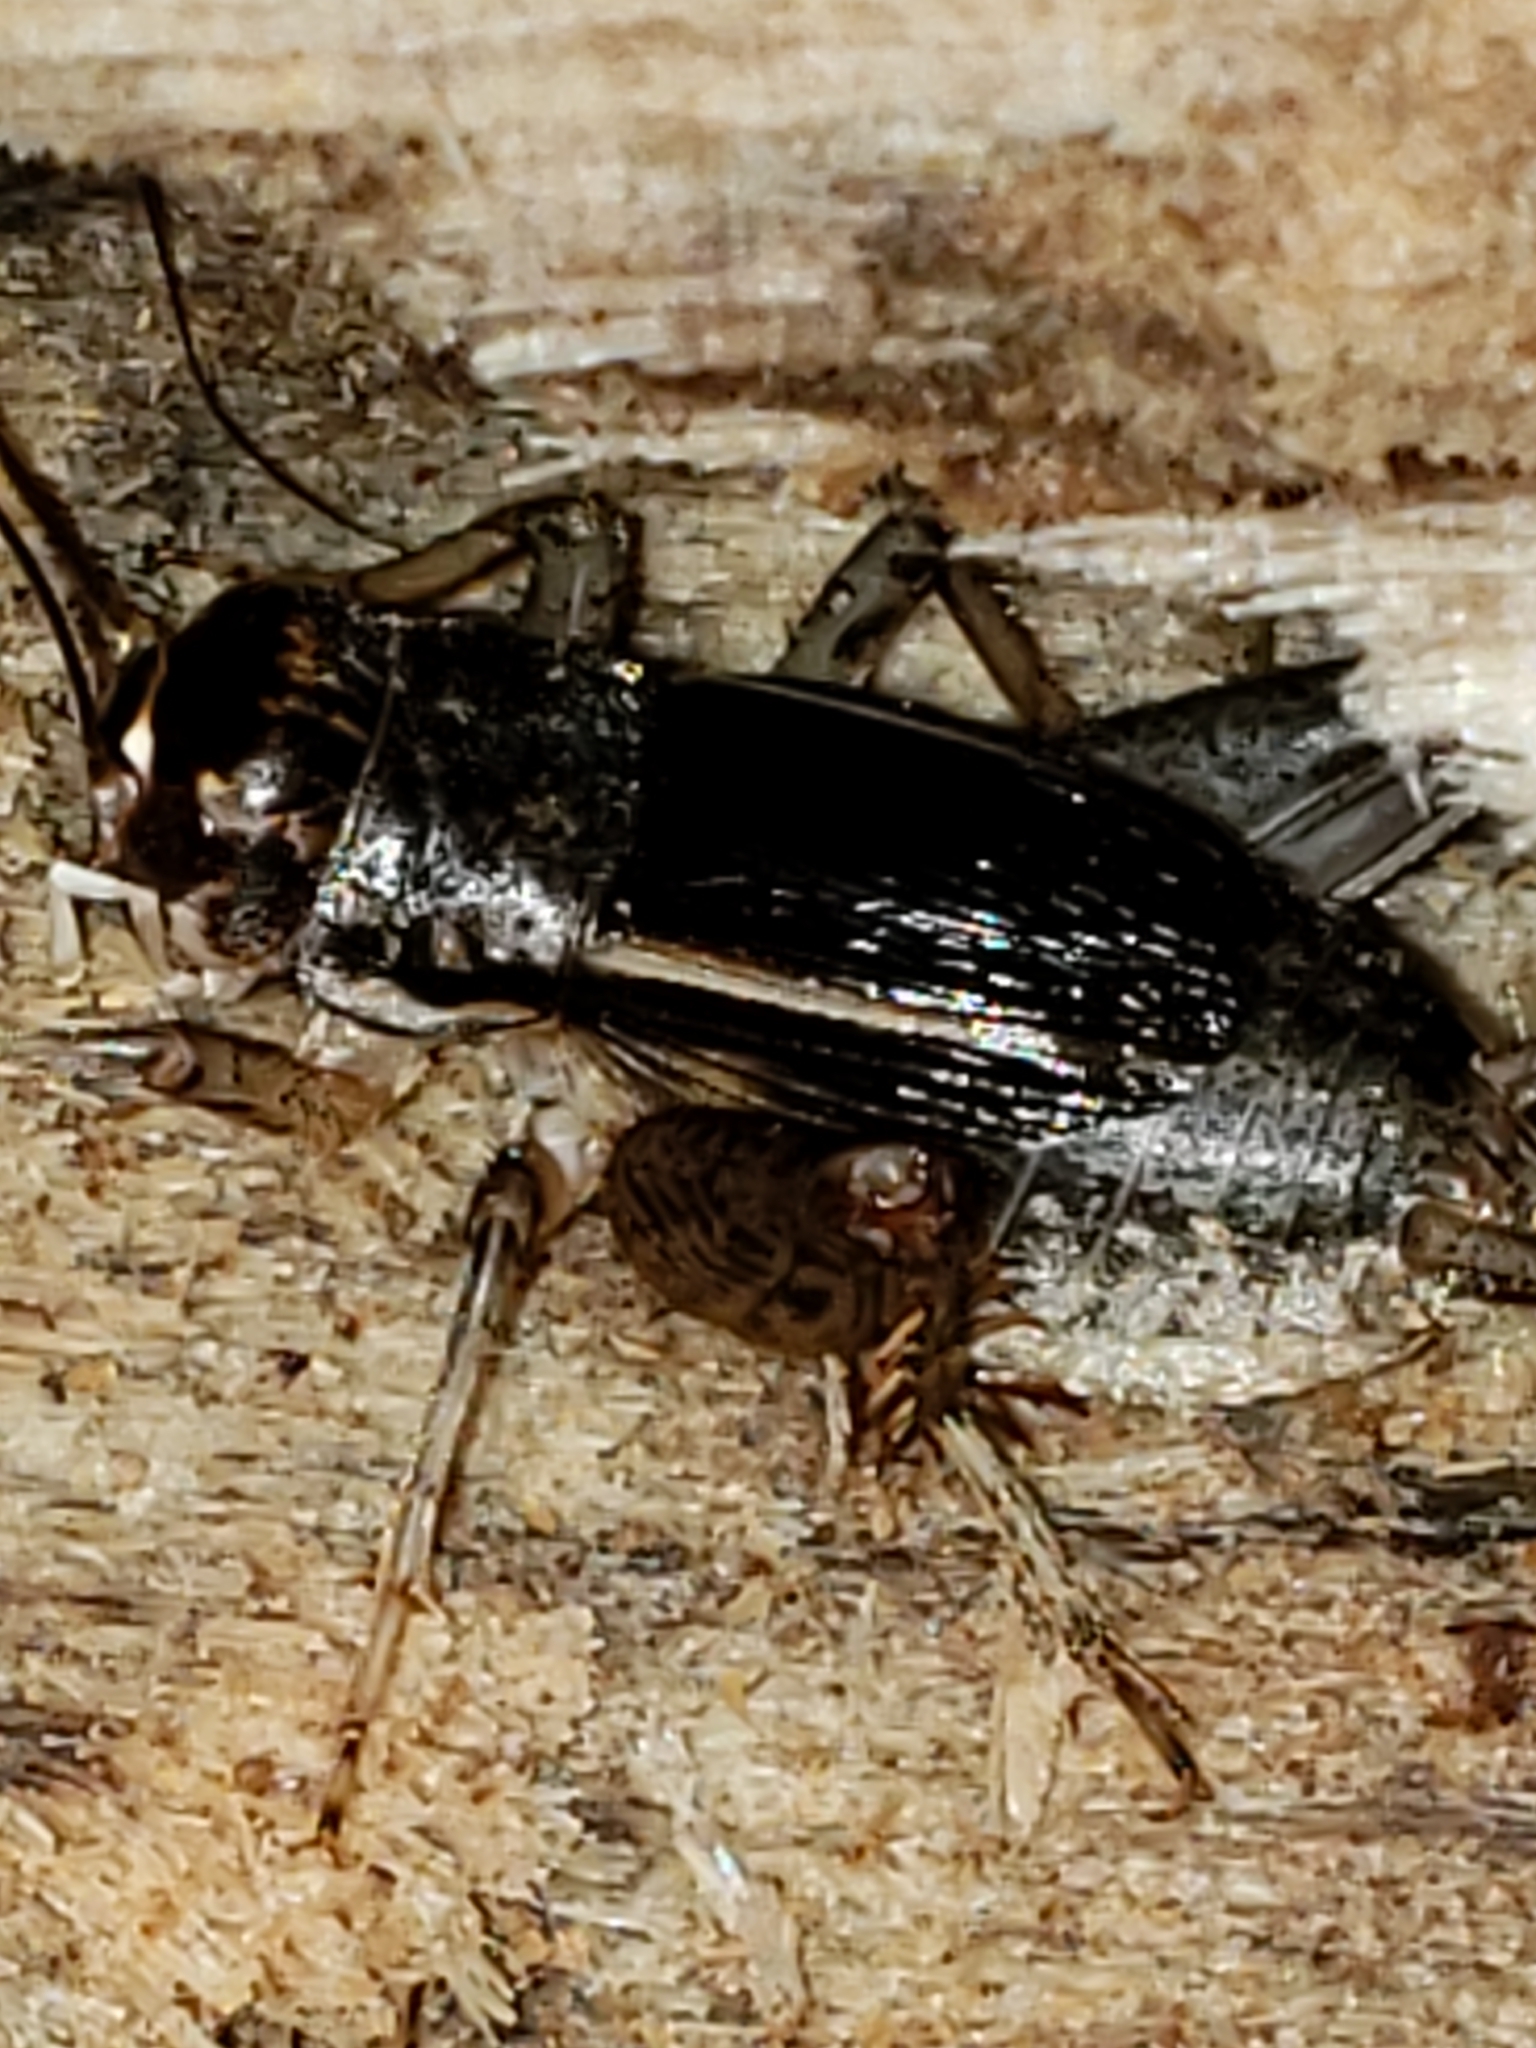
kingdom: Animalia
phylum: Arthropoda
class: Insecta
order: Orthoptera
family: Gryllidae
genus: Velarifictorus
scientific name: Velarifictorus micado
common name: Japanese burrowing cricket
